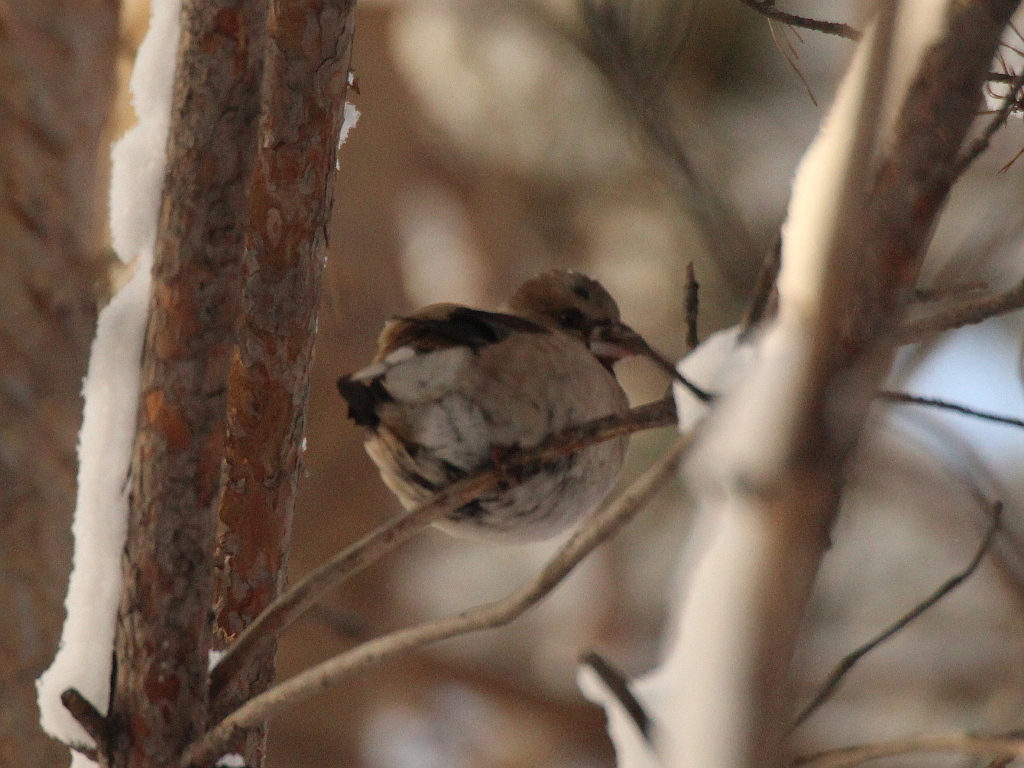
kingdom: Animalia
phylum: Chordata
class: Aves
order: Passeriformes
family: Fringillidae
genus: Coccothraustes
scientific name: Coccothraustes coccothraustes
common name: Hawfinch
